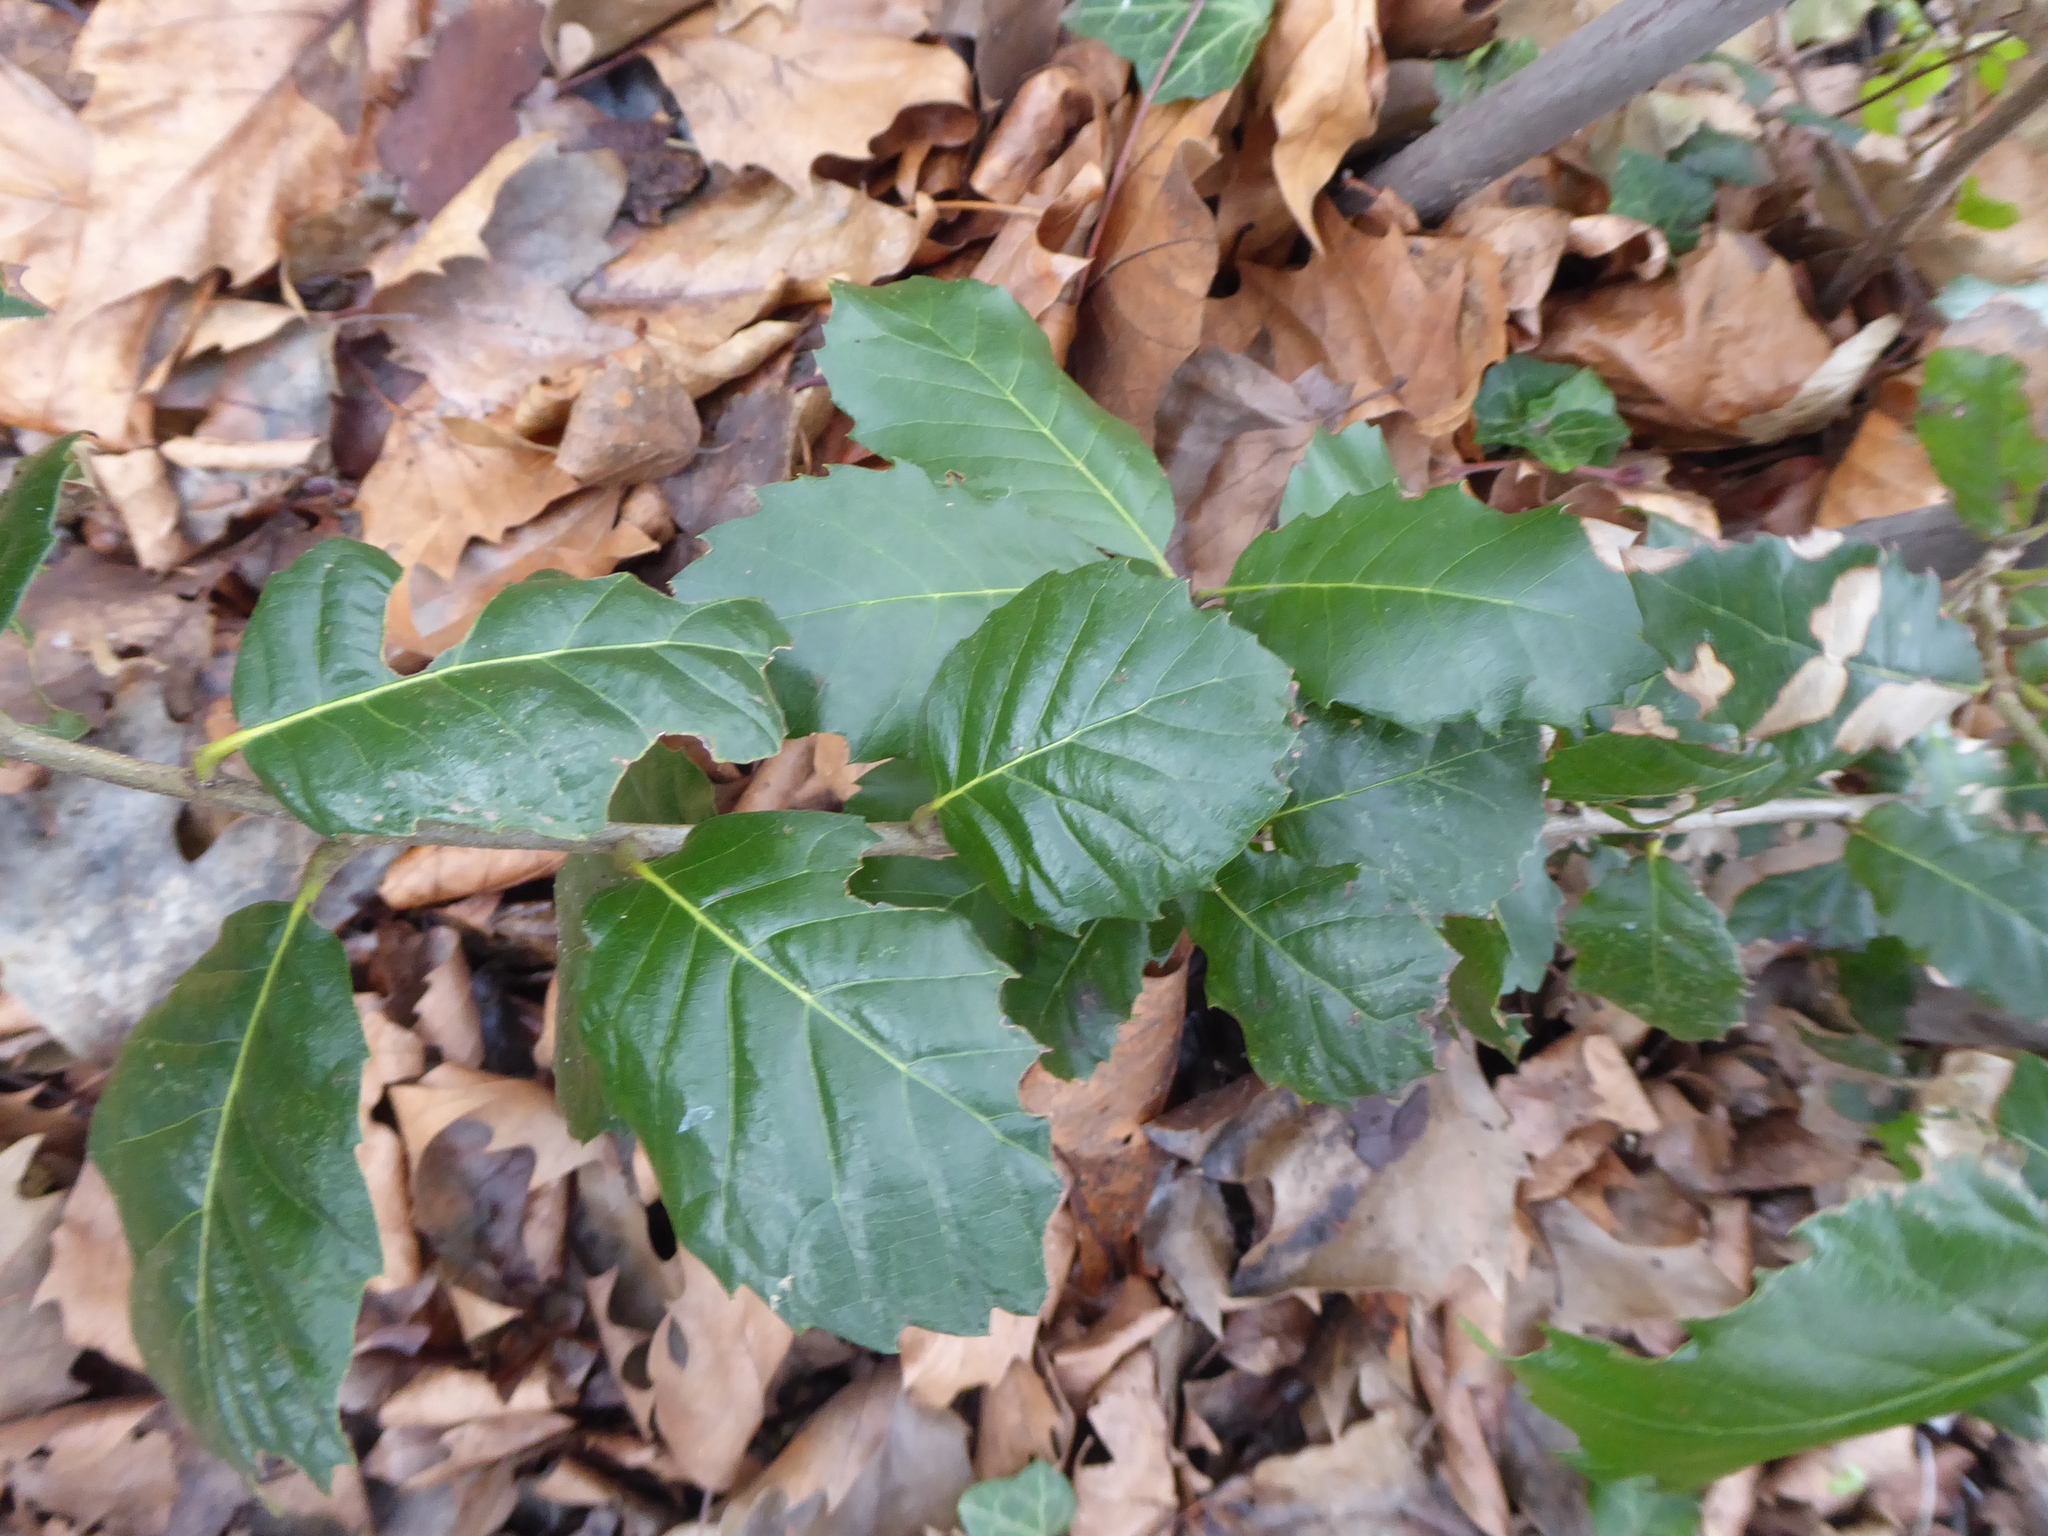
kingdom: Plantae
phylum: Tracheophyta
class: Magnoliopsida
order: Fagales
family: Fagaceae
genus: Quercus
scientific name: Quercus ilex
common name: Evergreen oak
